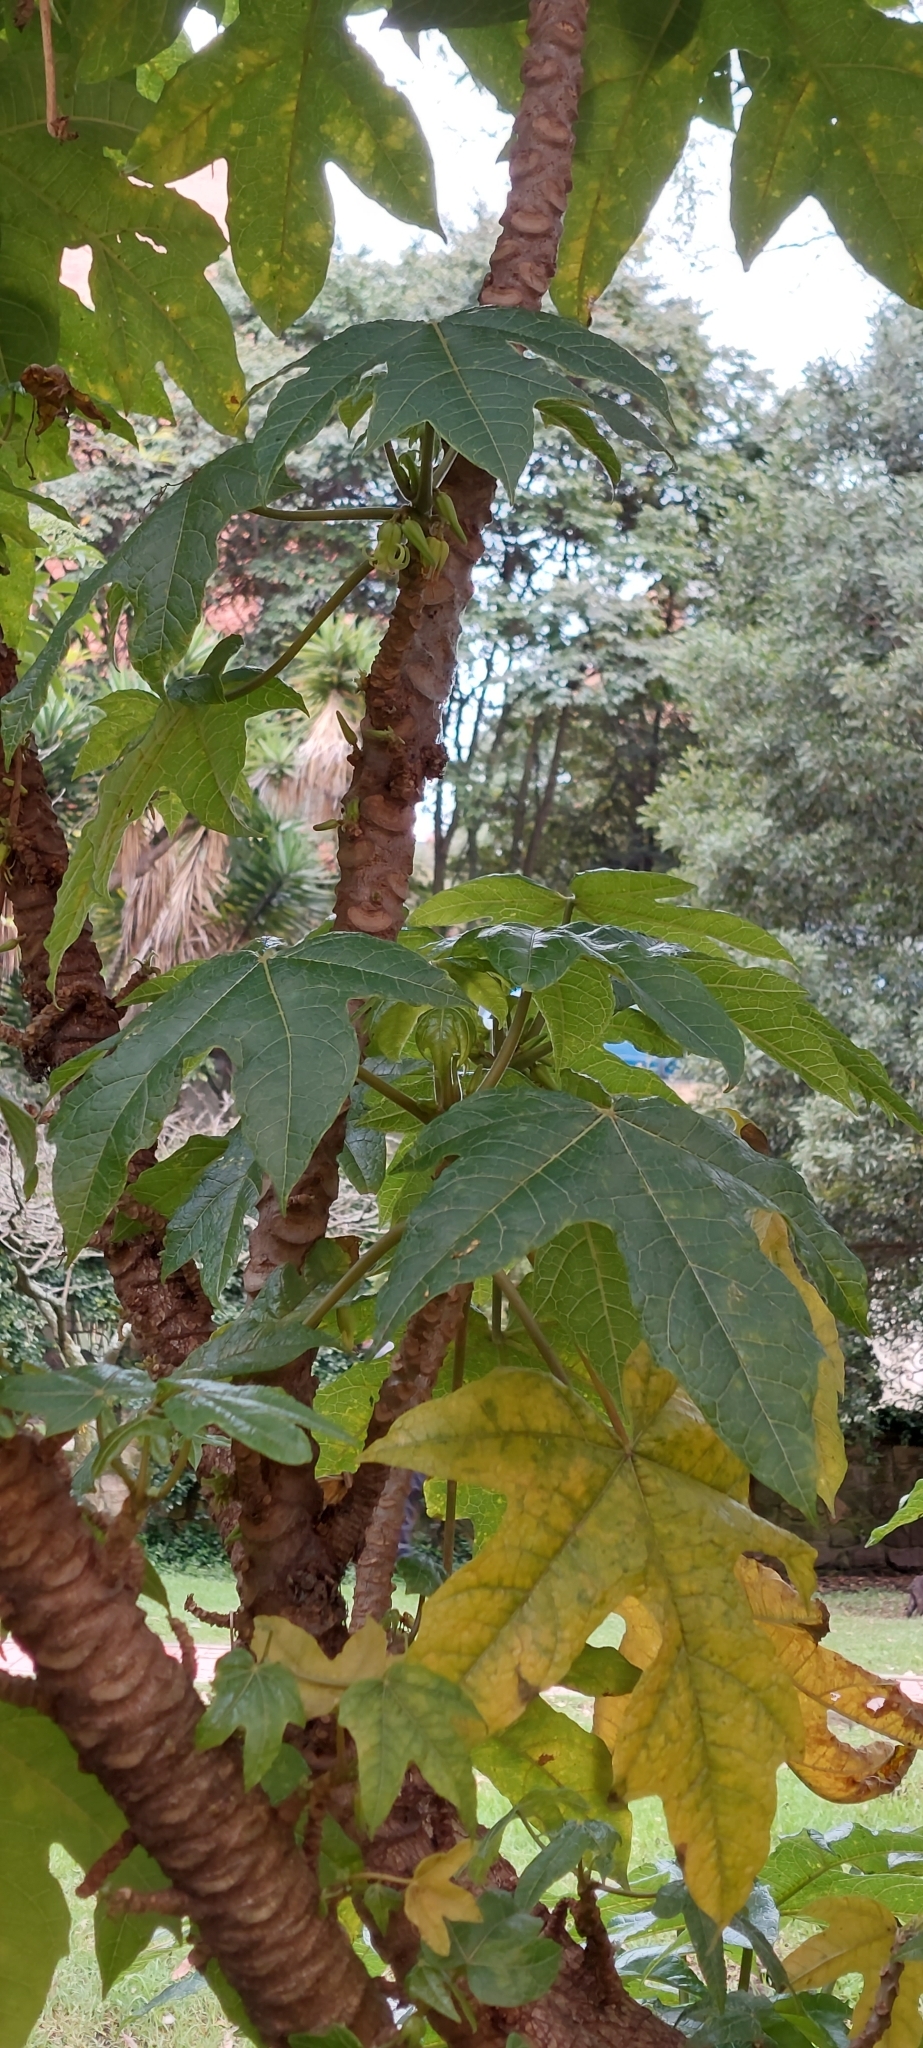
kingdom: Plantae
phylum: Tracheophyta
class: Magnoliopsida
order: Brassicales
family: Caricaceae
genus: Vasconcellea
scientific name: Vasconcellea pubescens
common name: Mountain papaya
